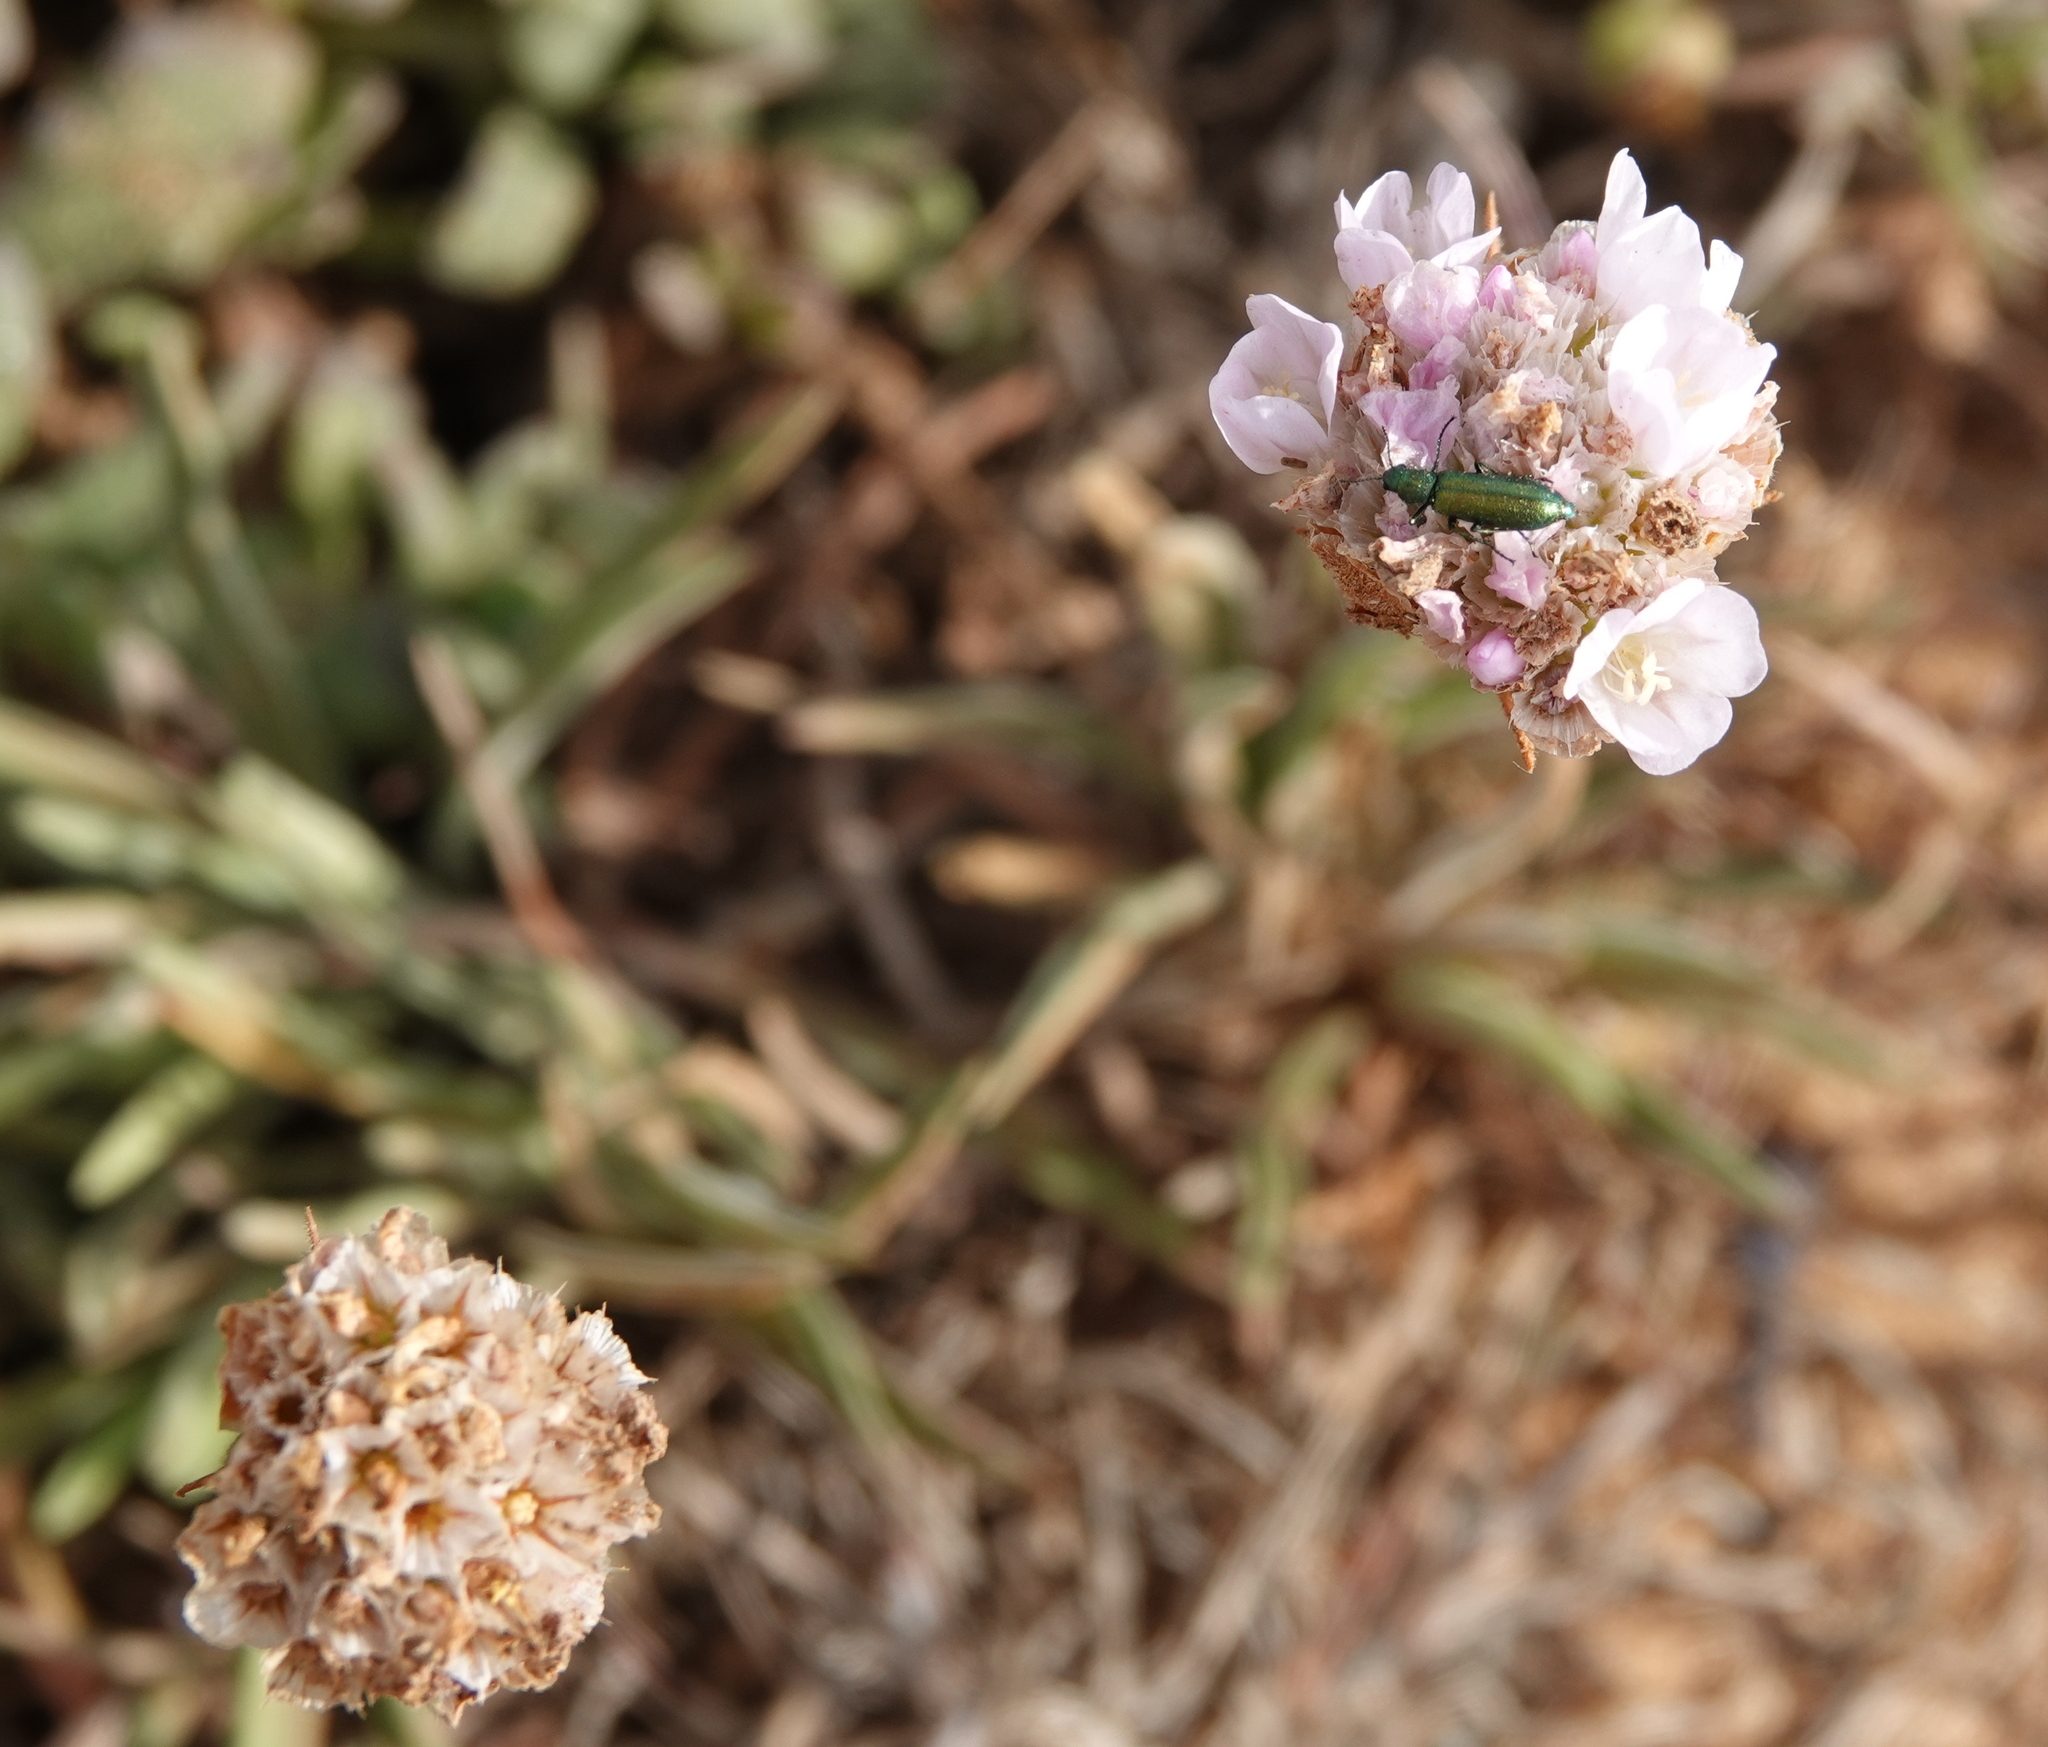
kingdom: Plantae
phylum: Tracheophyta
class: Magnoliopsida
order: Caryophyllales
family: Plumbaginaceae
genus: Armeria
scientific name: Armeria welwitschii
